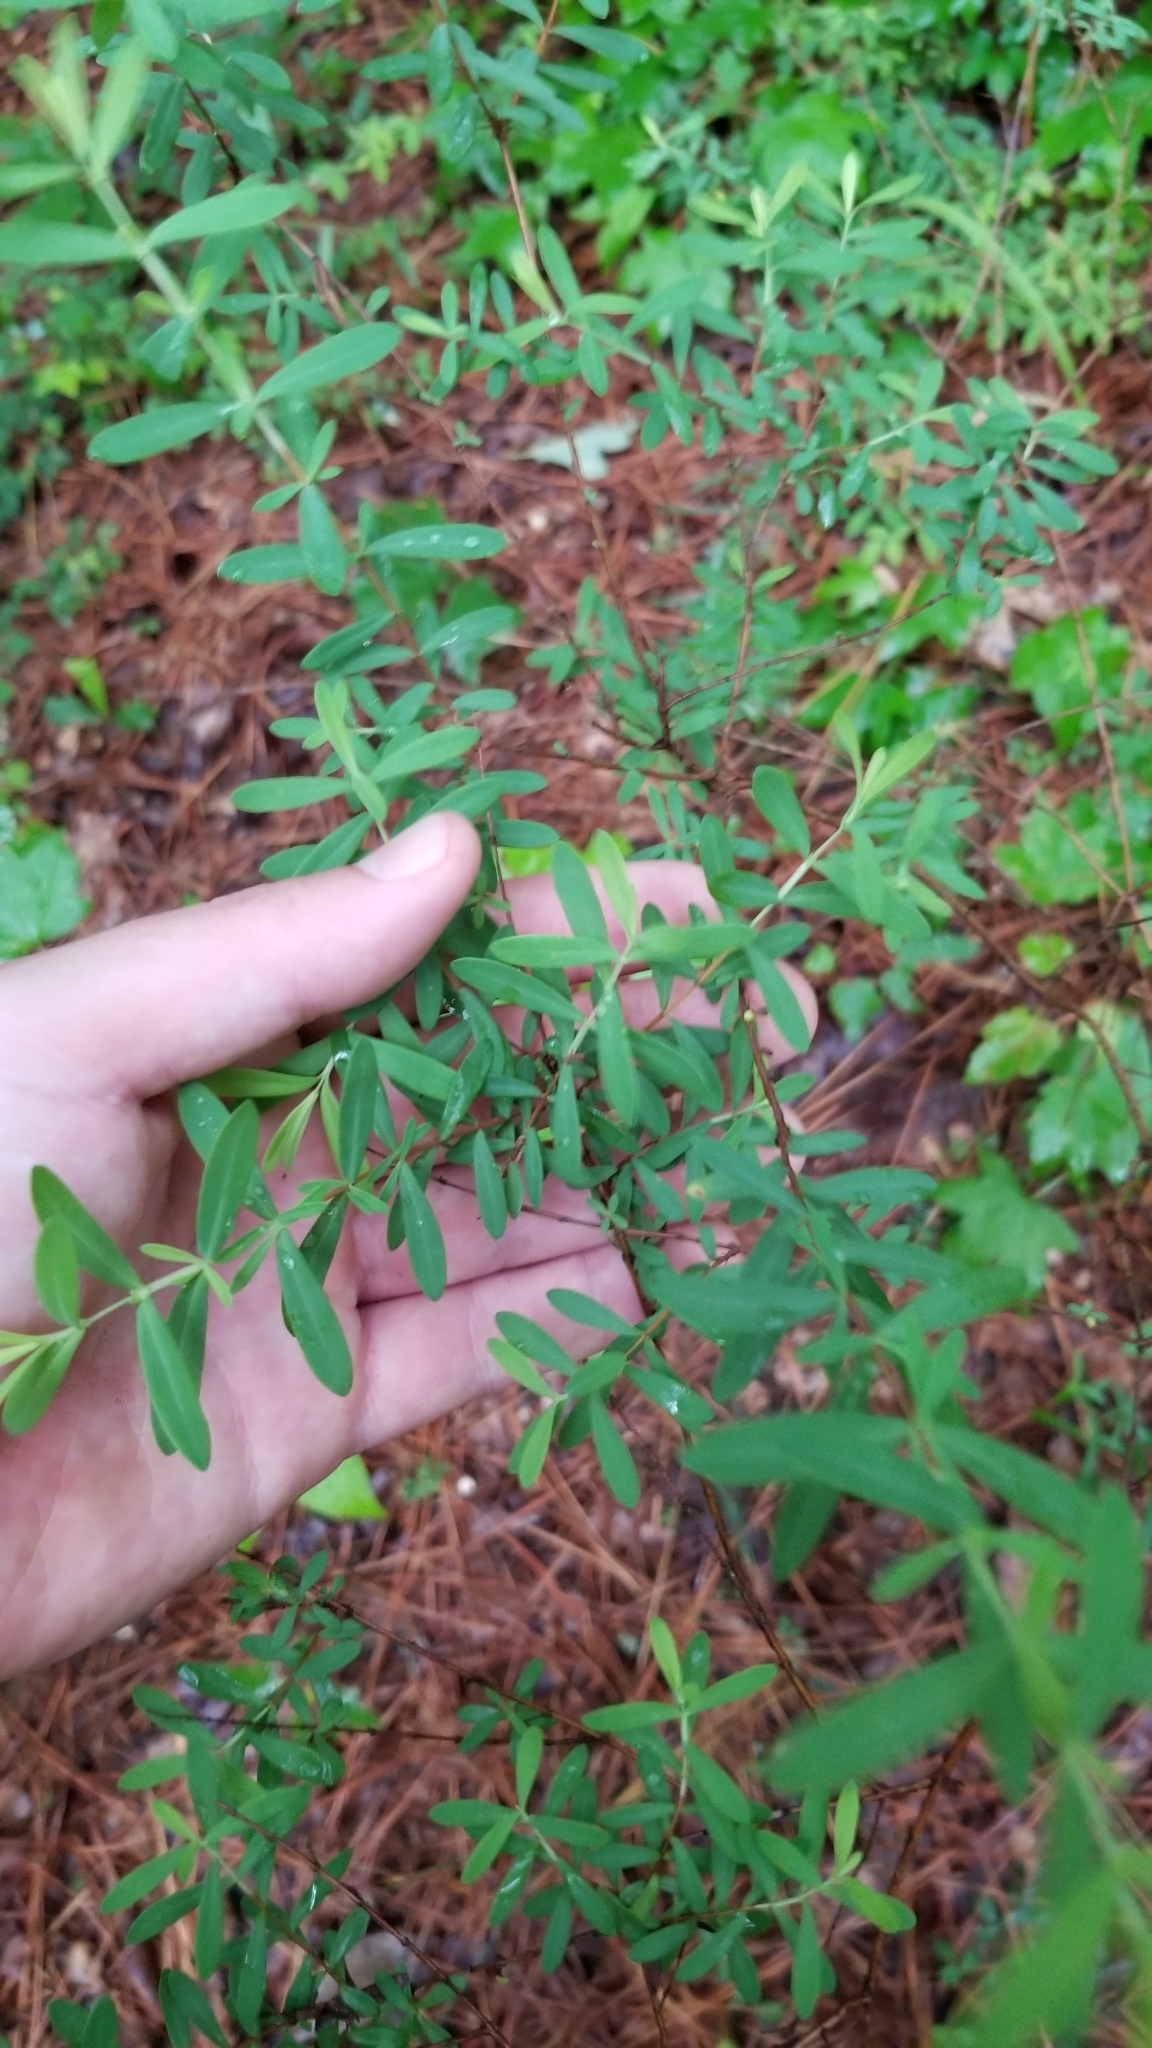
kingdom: Plantae
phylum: Tracheophyta
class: Magnoliopsida
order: Malpighiales
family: Hypericaceae
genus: Hypericum
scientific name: Hypericum hypericoides
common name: St. andrew's cross
